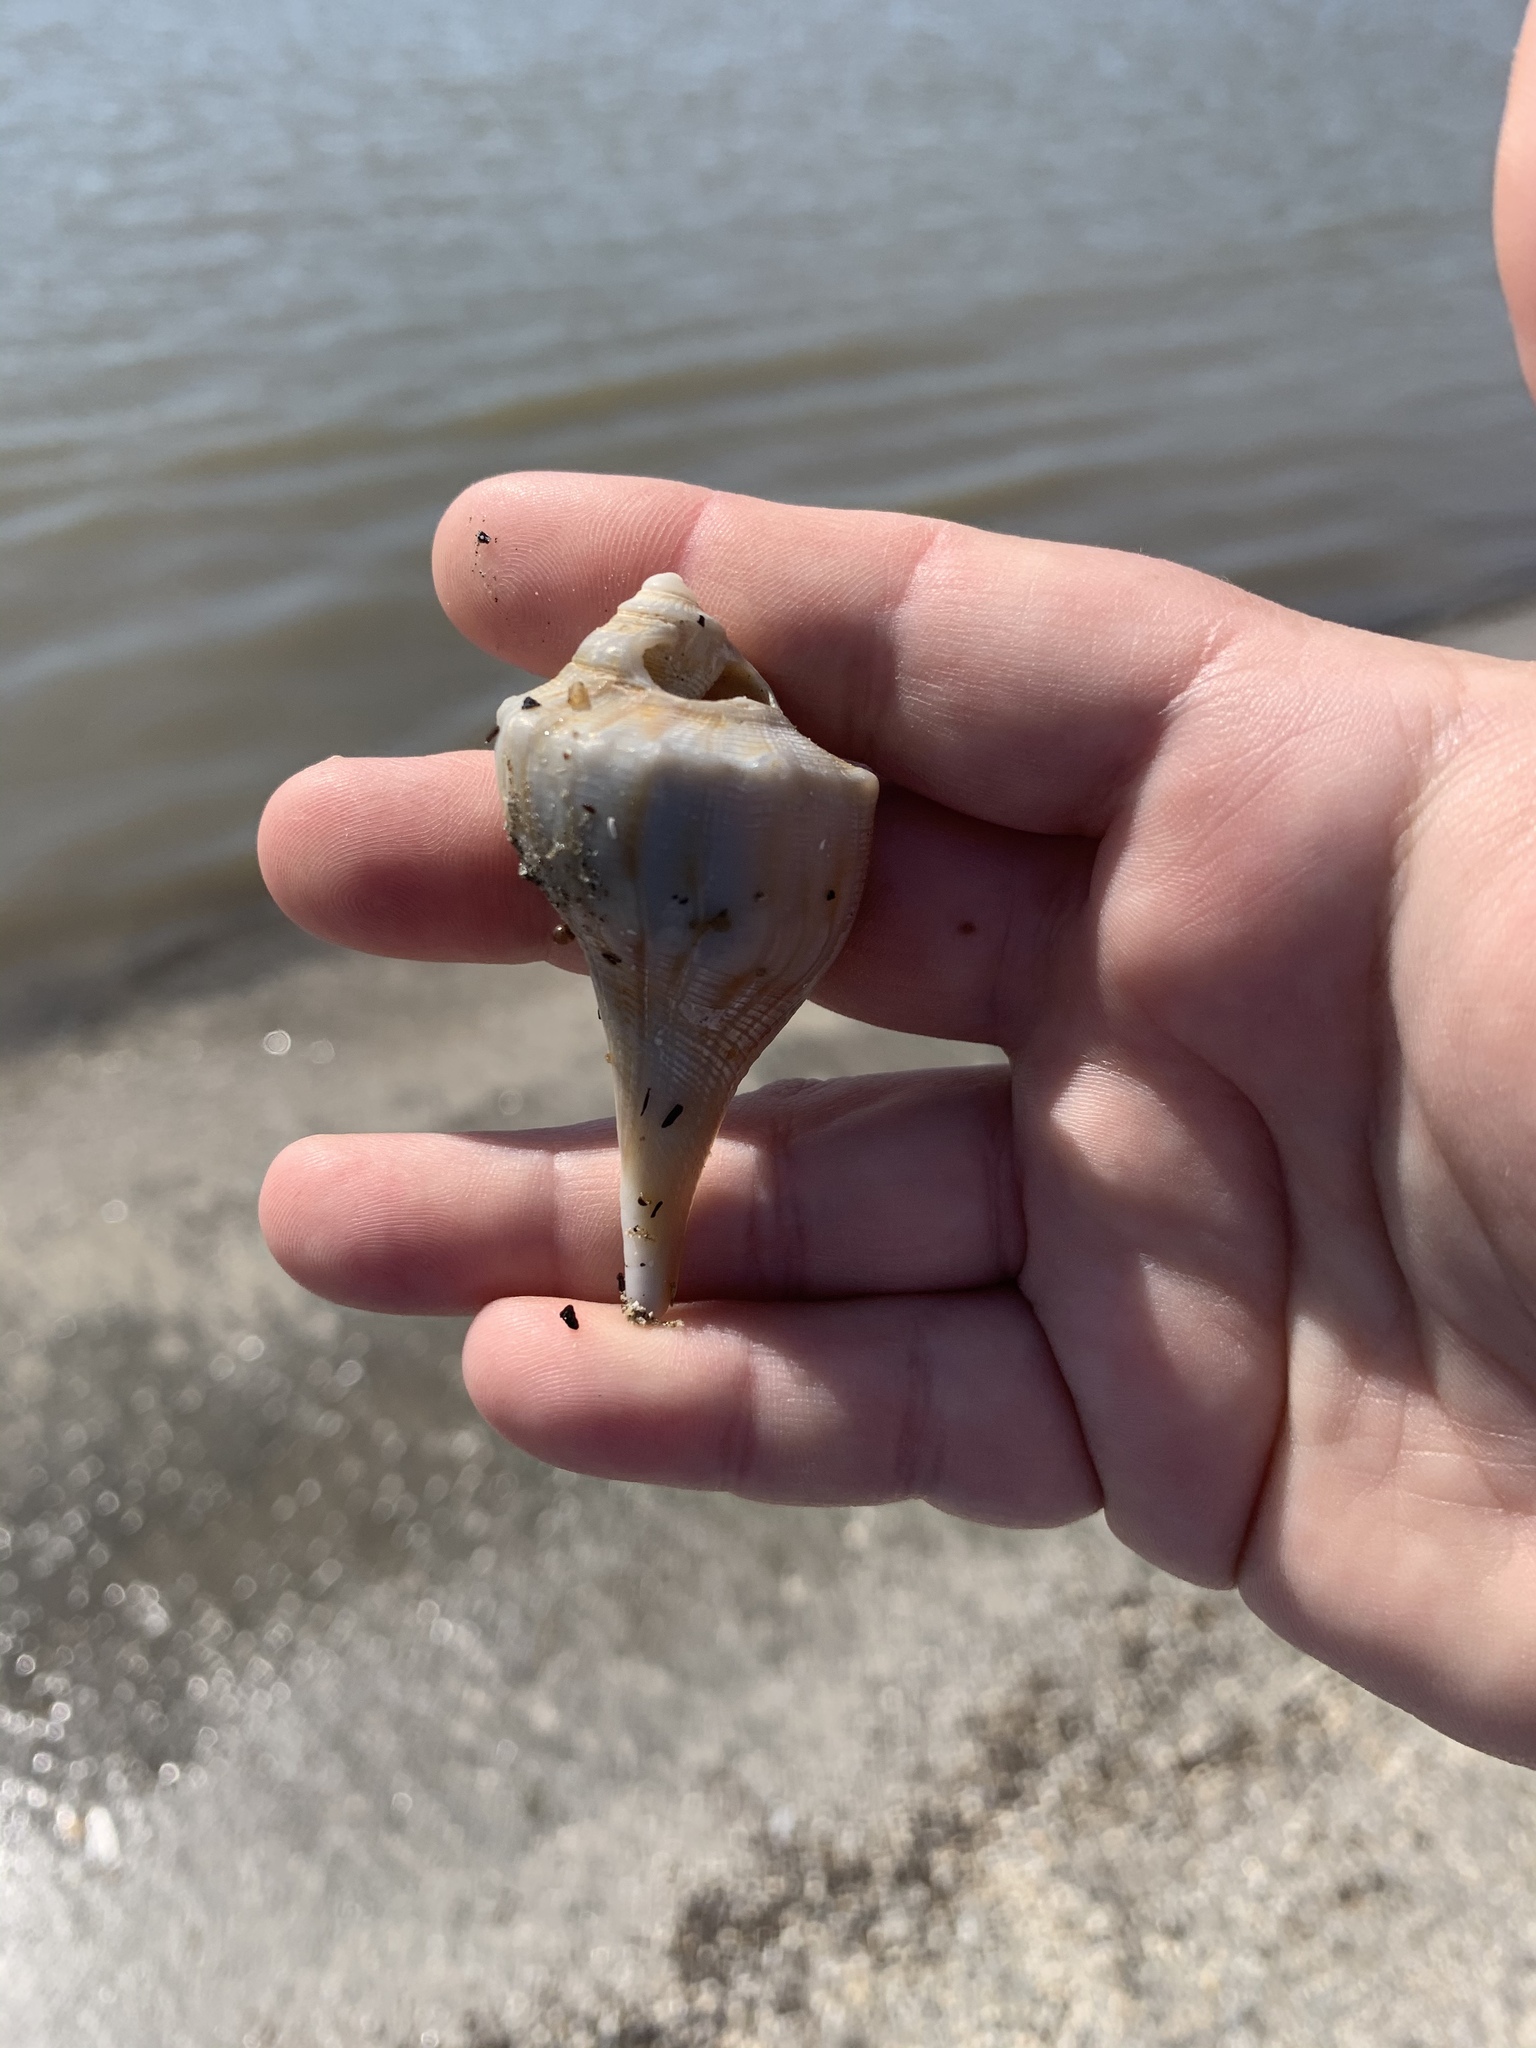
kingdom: Animalia
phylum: Mollusca
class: Gastropoda
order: Neogastropoda
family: Busyconidae
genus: Sinistrofulgur
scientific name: Sinistrofulgur pulleyi
